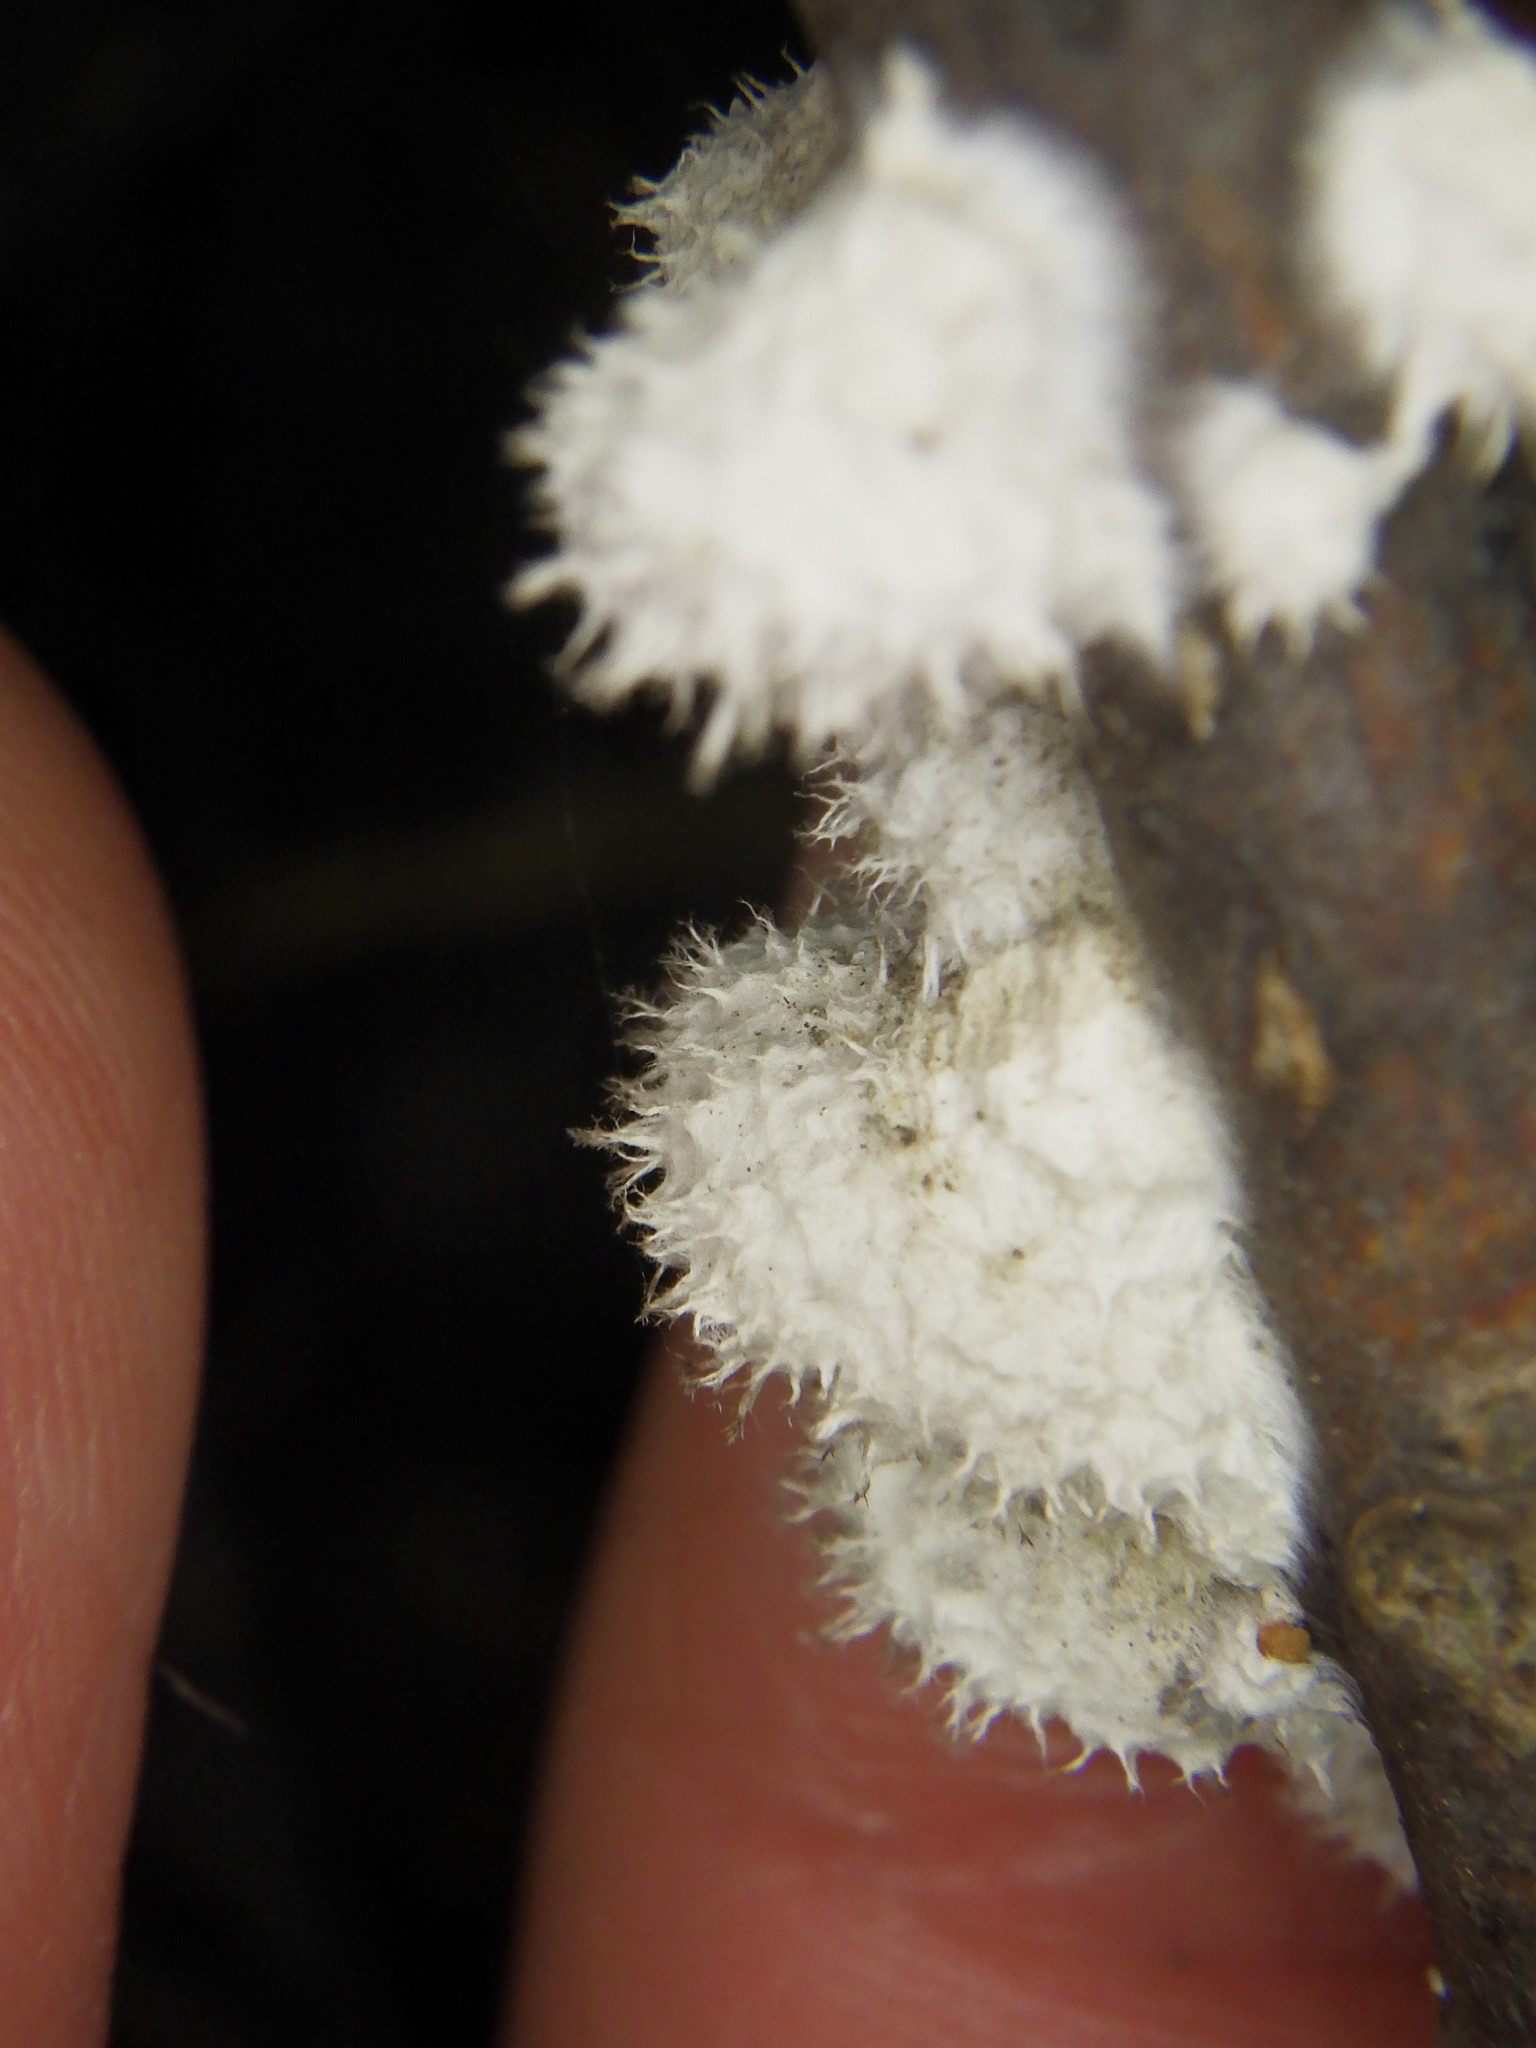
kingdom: Fungi
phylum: Basidiomycota
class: Agaricomycetes
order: Agaricales
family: Schizophyllaceae
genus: Schizophyllum
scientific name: Schizophyllum commune
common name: Common porecrust
